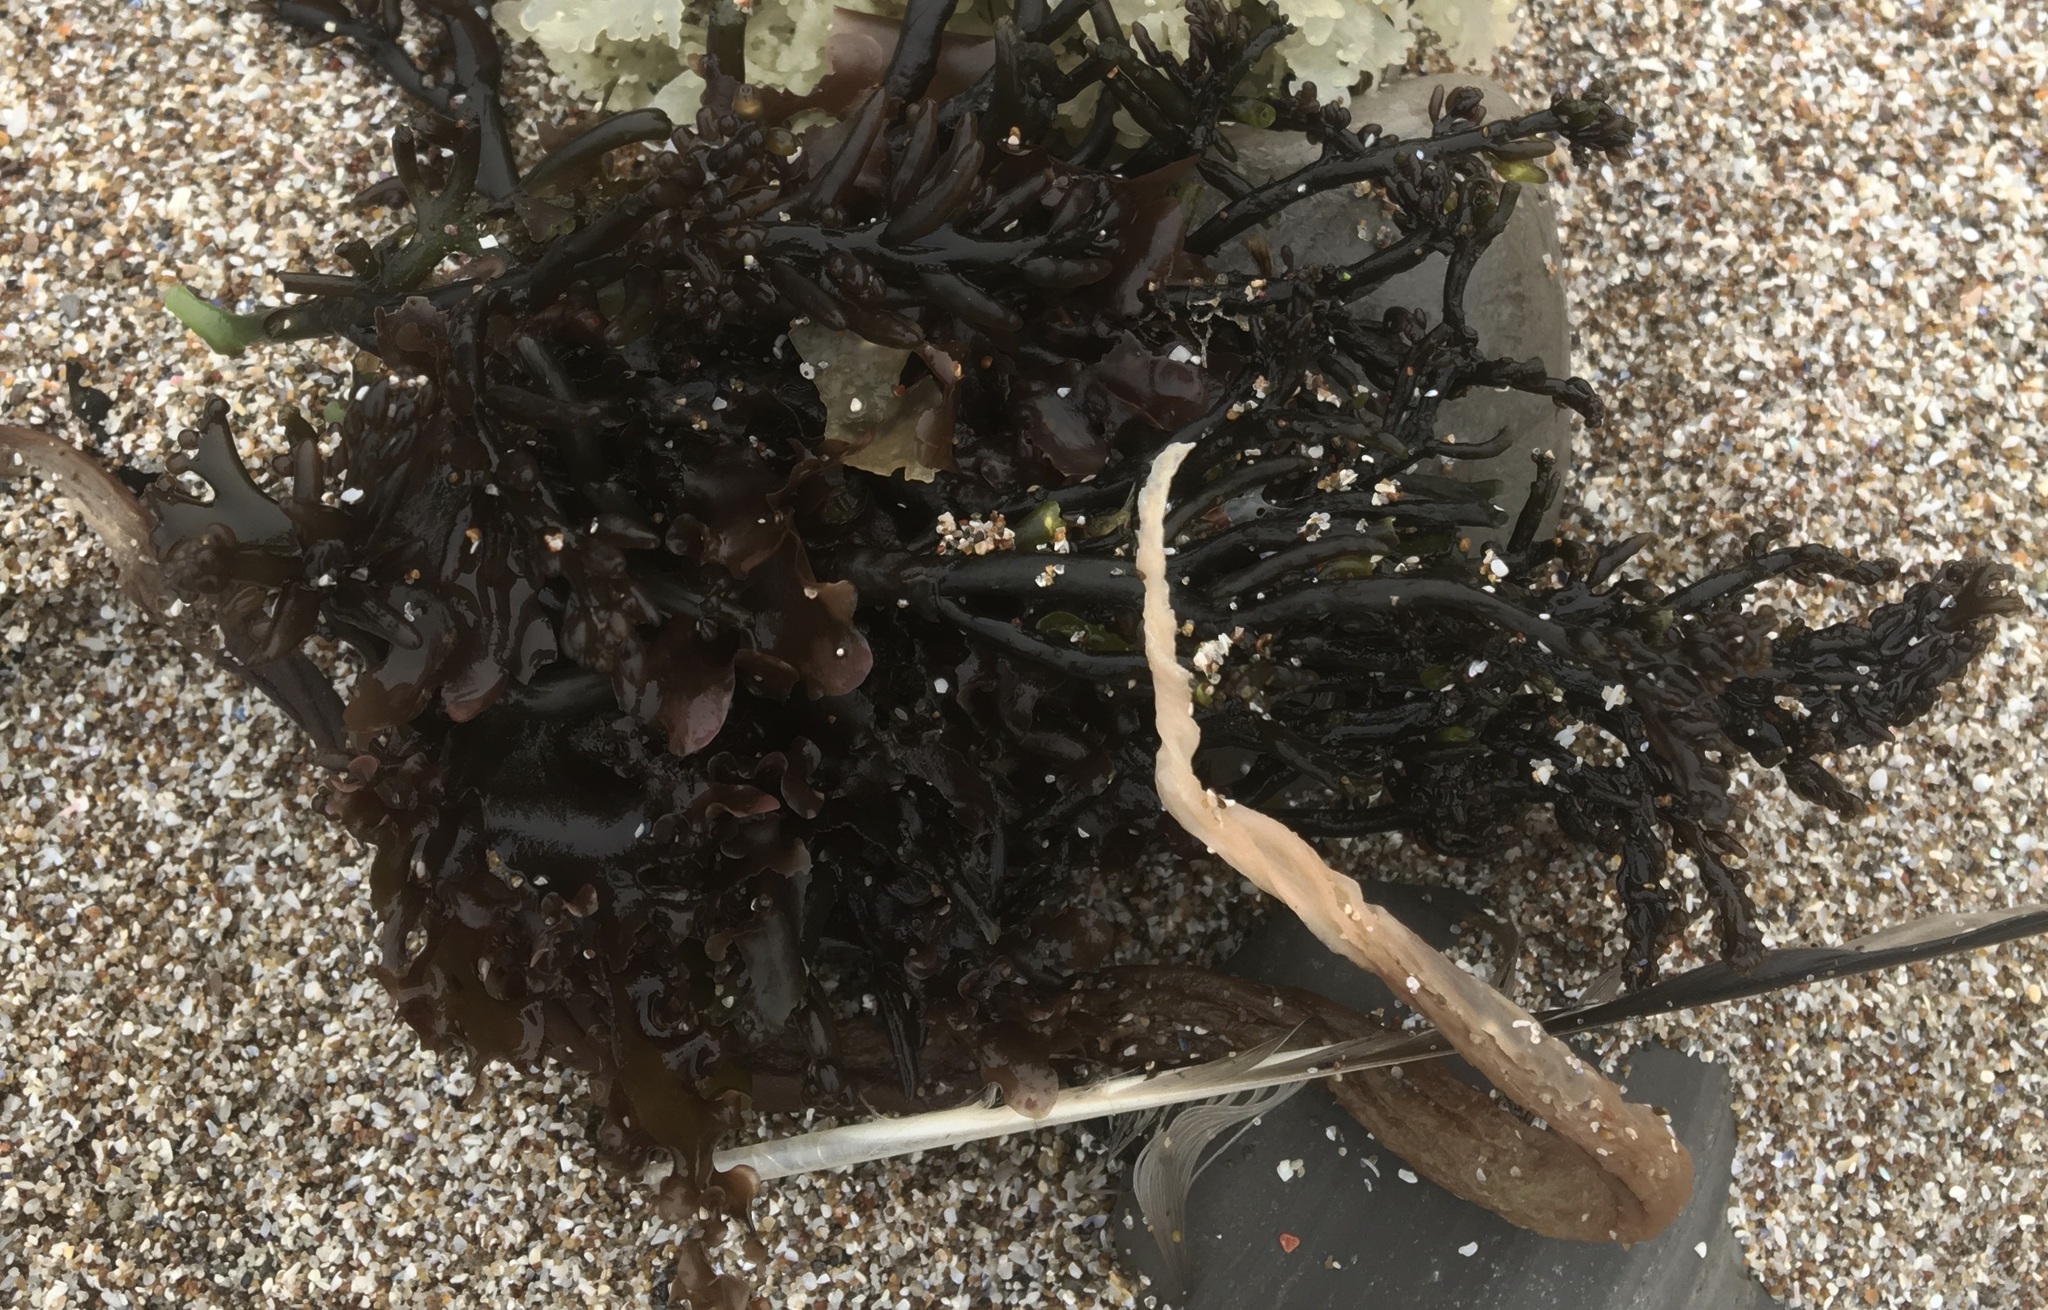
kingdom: Plantae
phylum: Rhodophyta
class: Florideophyceae
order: Rhodymeniales
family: Champiaceae
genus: Neogastroclonium
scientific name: Neogastroclonium subarticulatum
